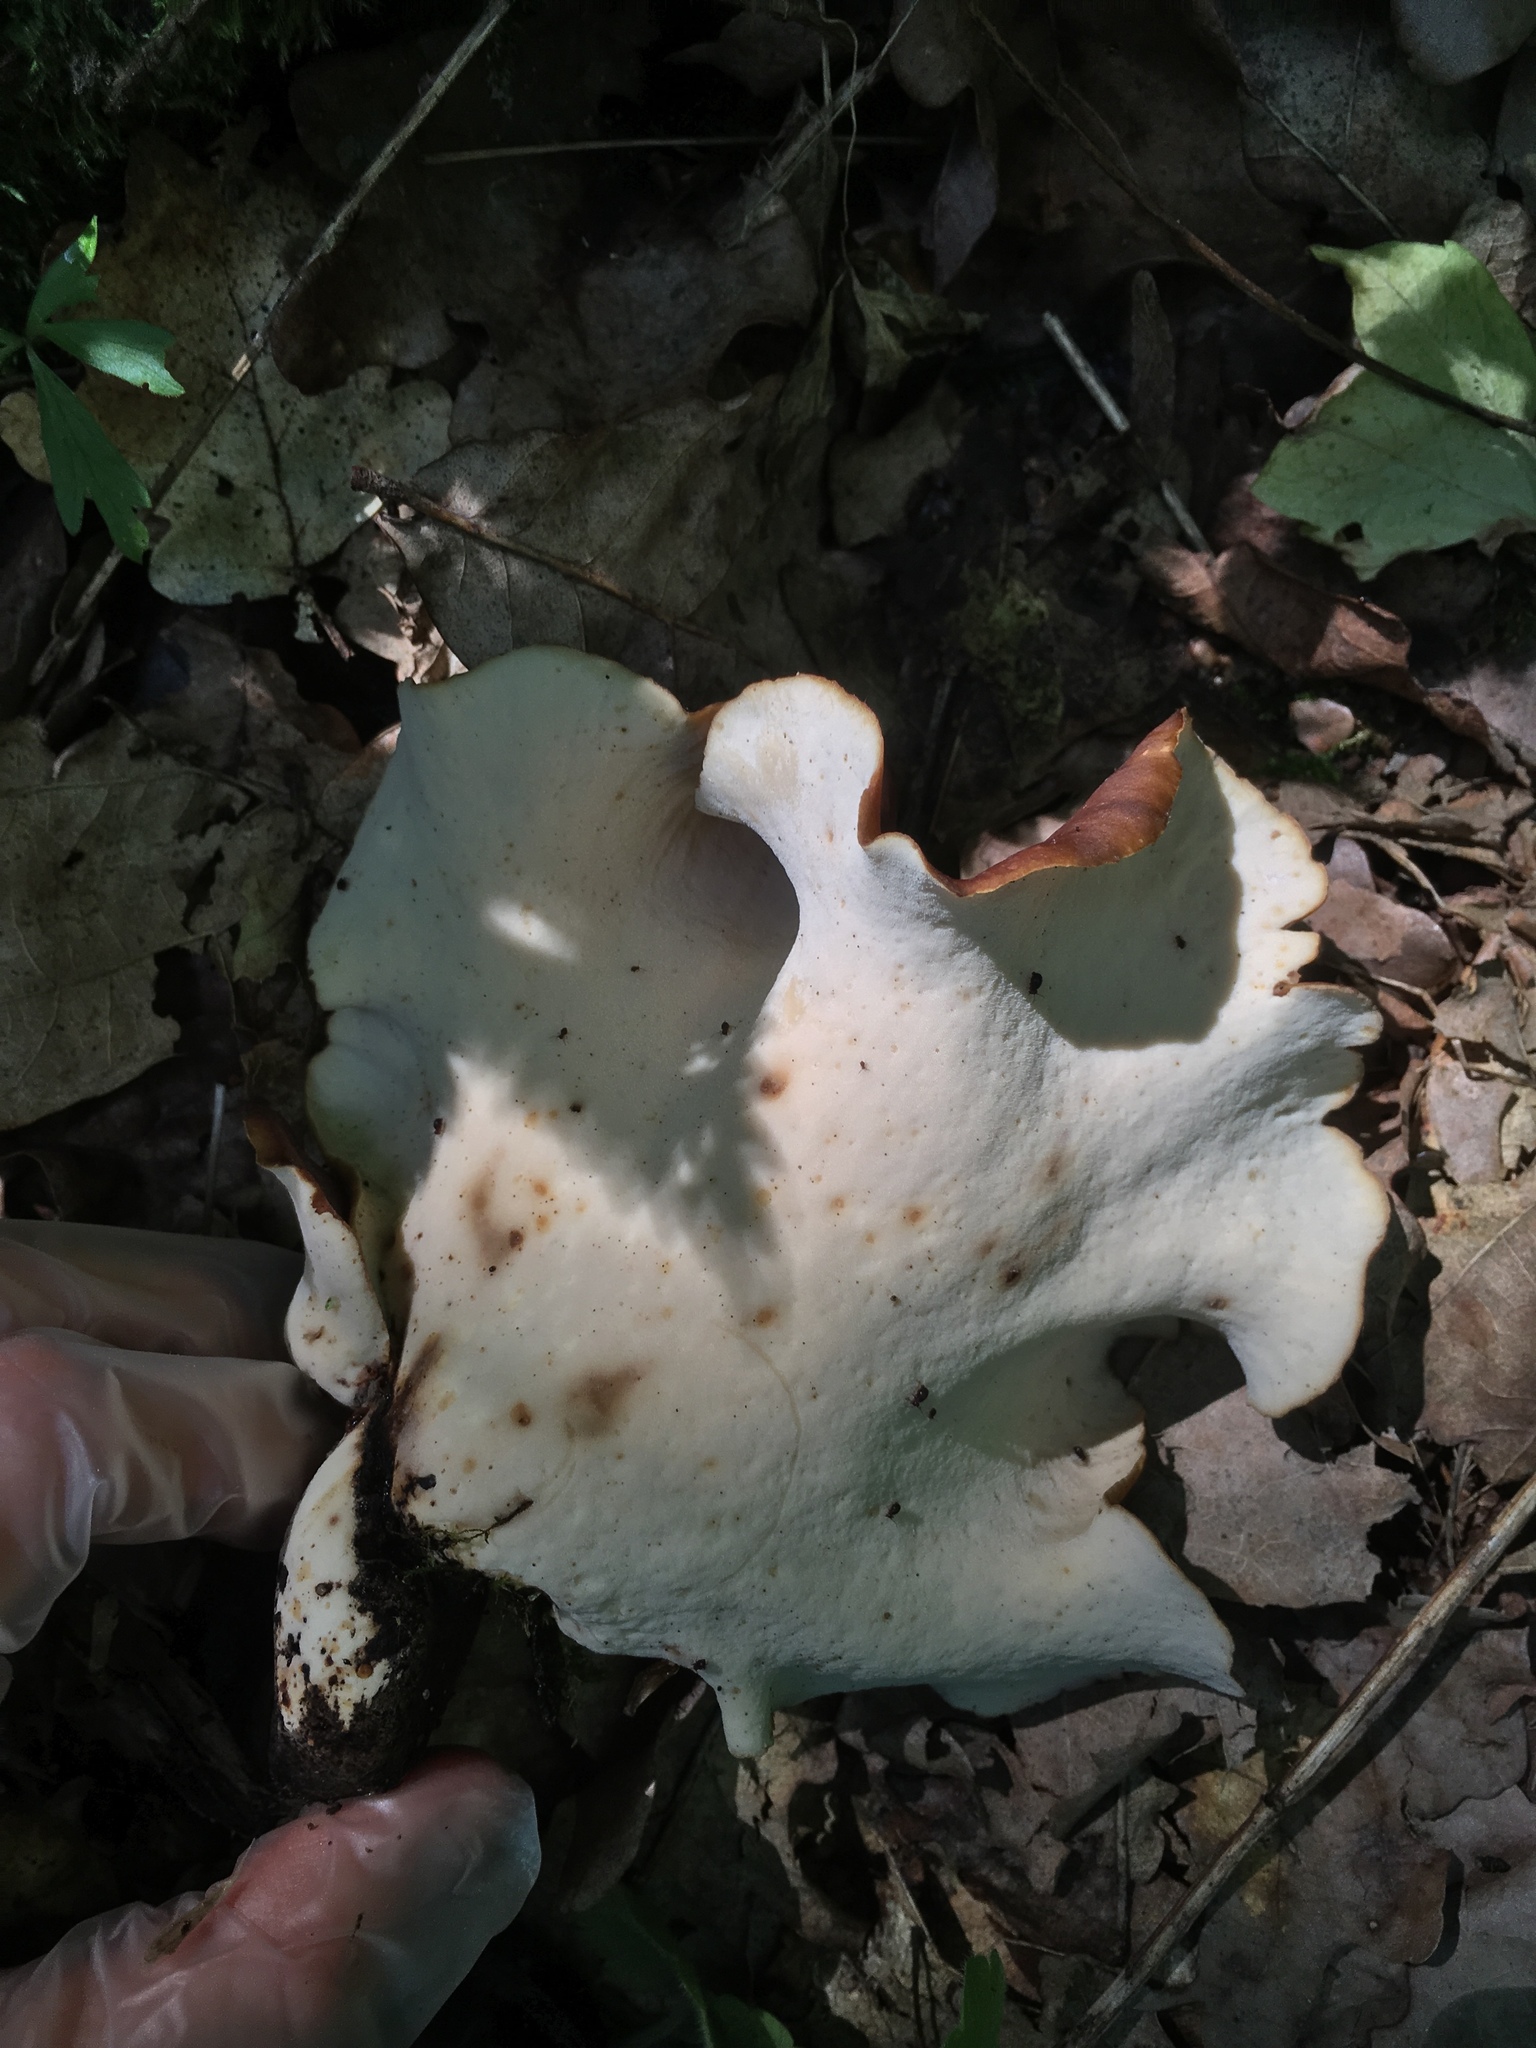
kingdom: Fungi
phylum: Basidiomycota
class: Agaricomycetes
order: Polyporales
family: Polyporaceae
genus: Picipes
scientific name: Picipes badius
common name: Bay polypore
